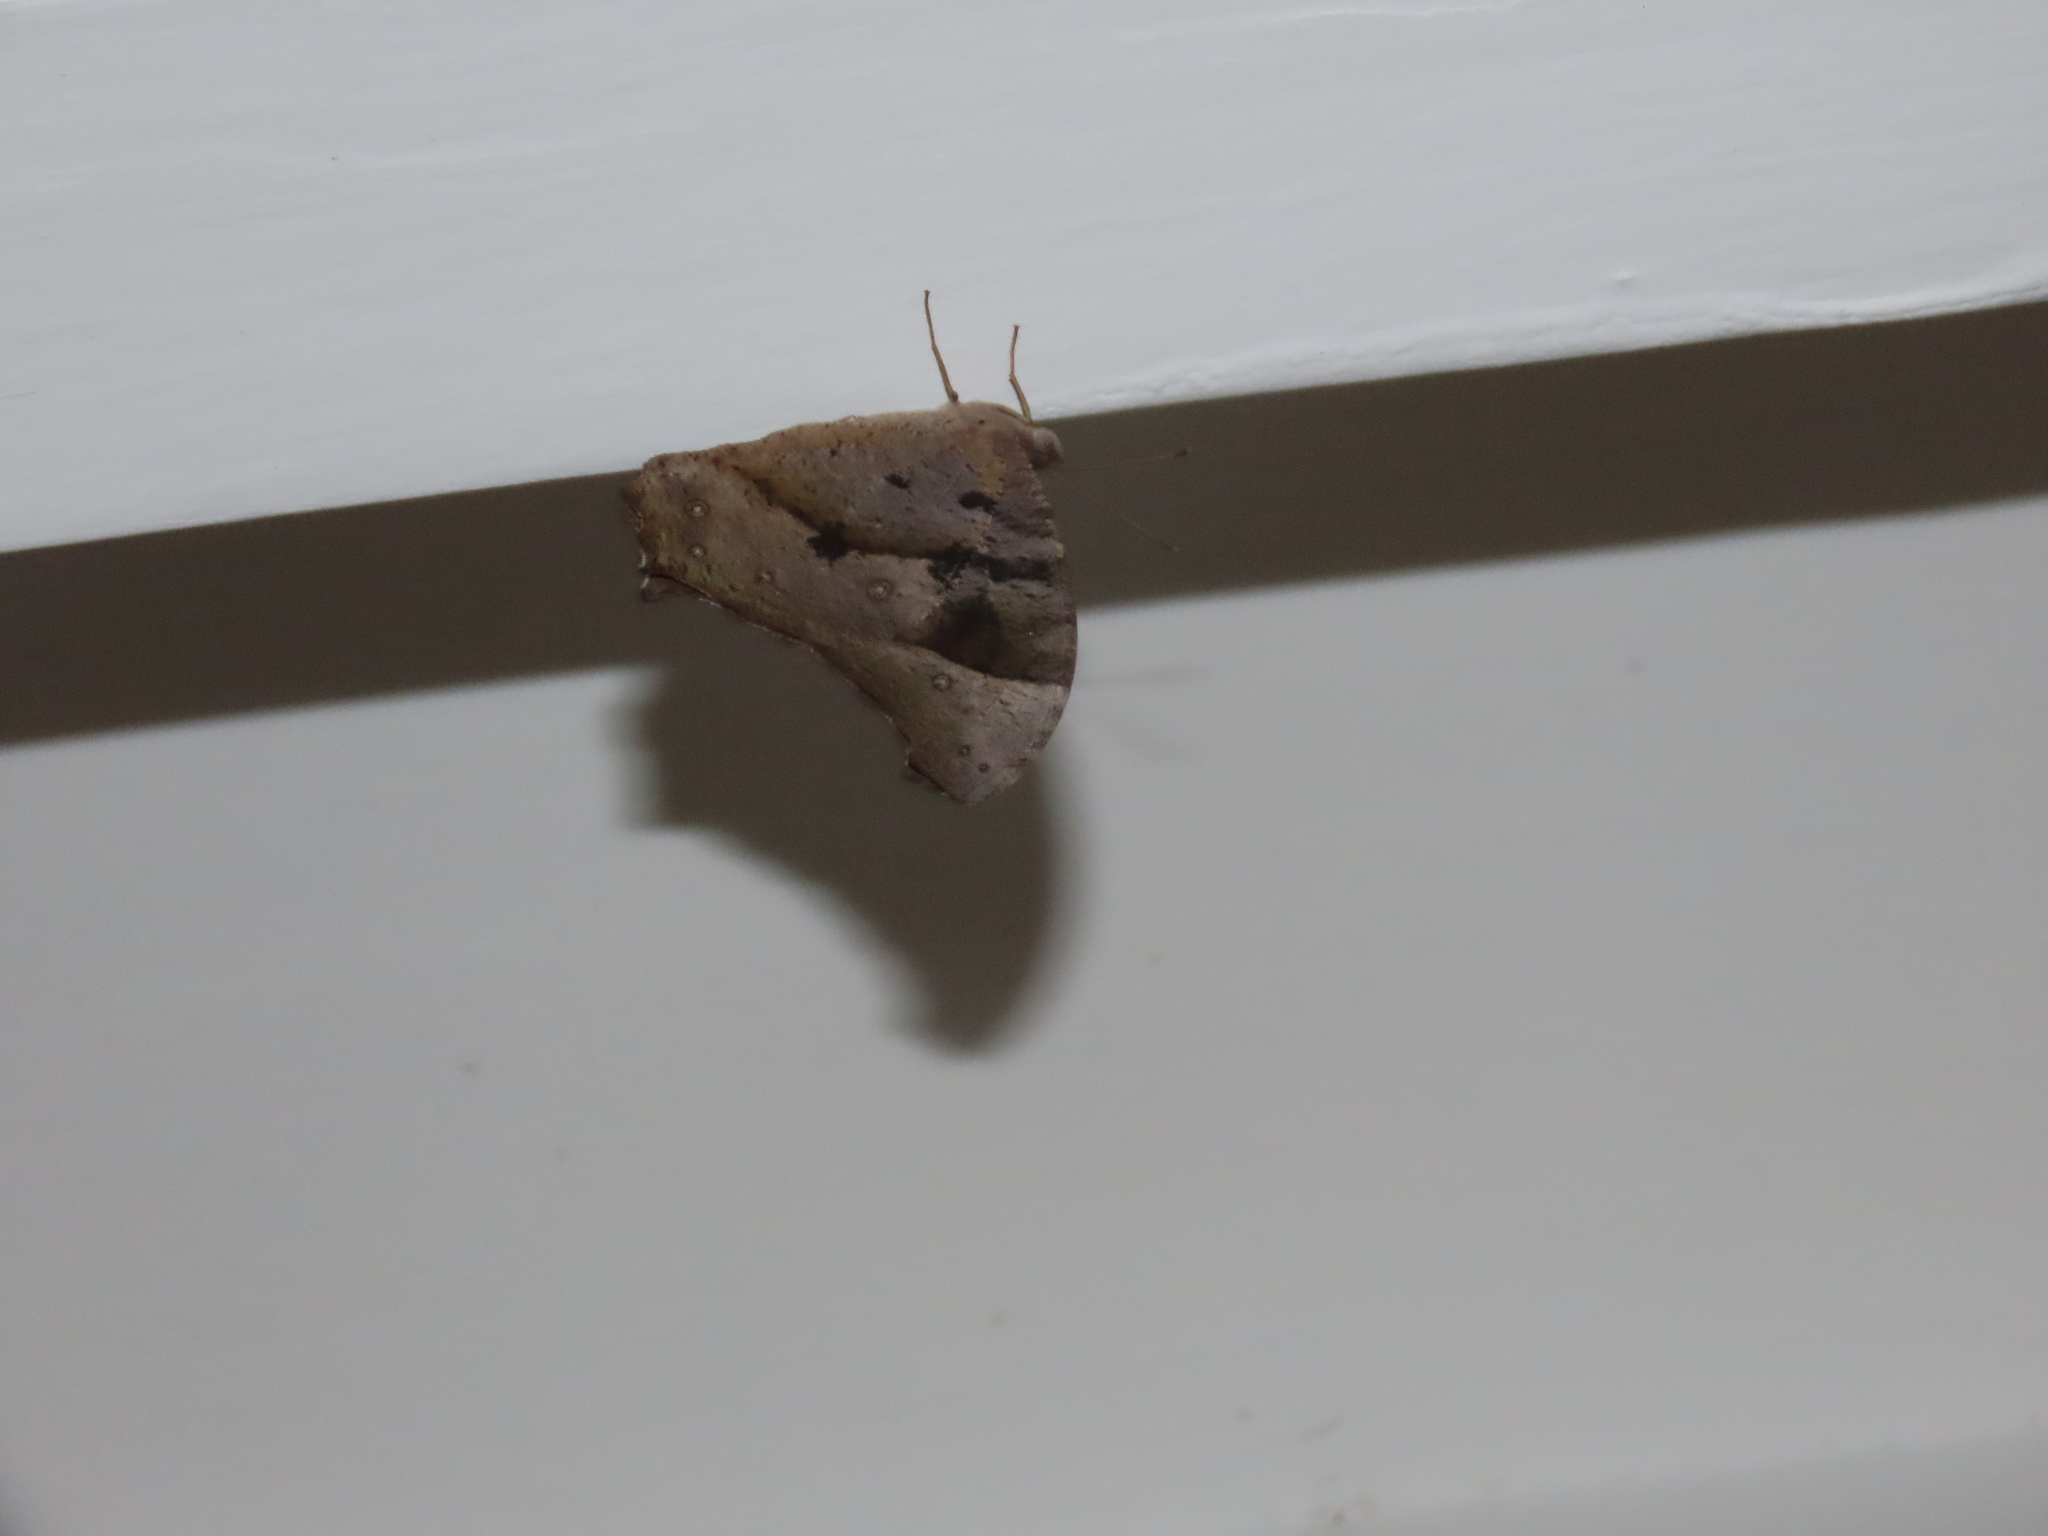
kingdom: Animalia
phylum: Arthropoda
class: Insecta
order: Lepidoptera
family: Nymphalidae
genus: Melanitis
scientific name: Melanitis leda
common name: Twilight brown
